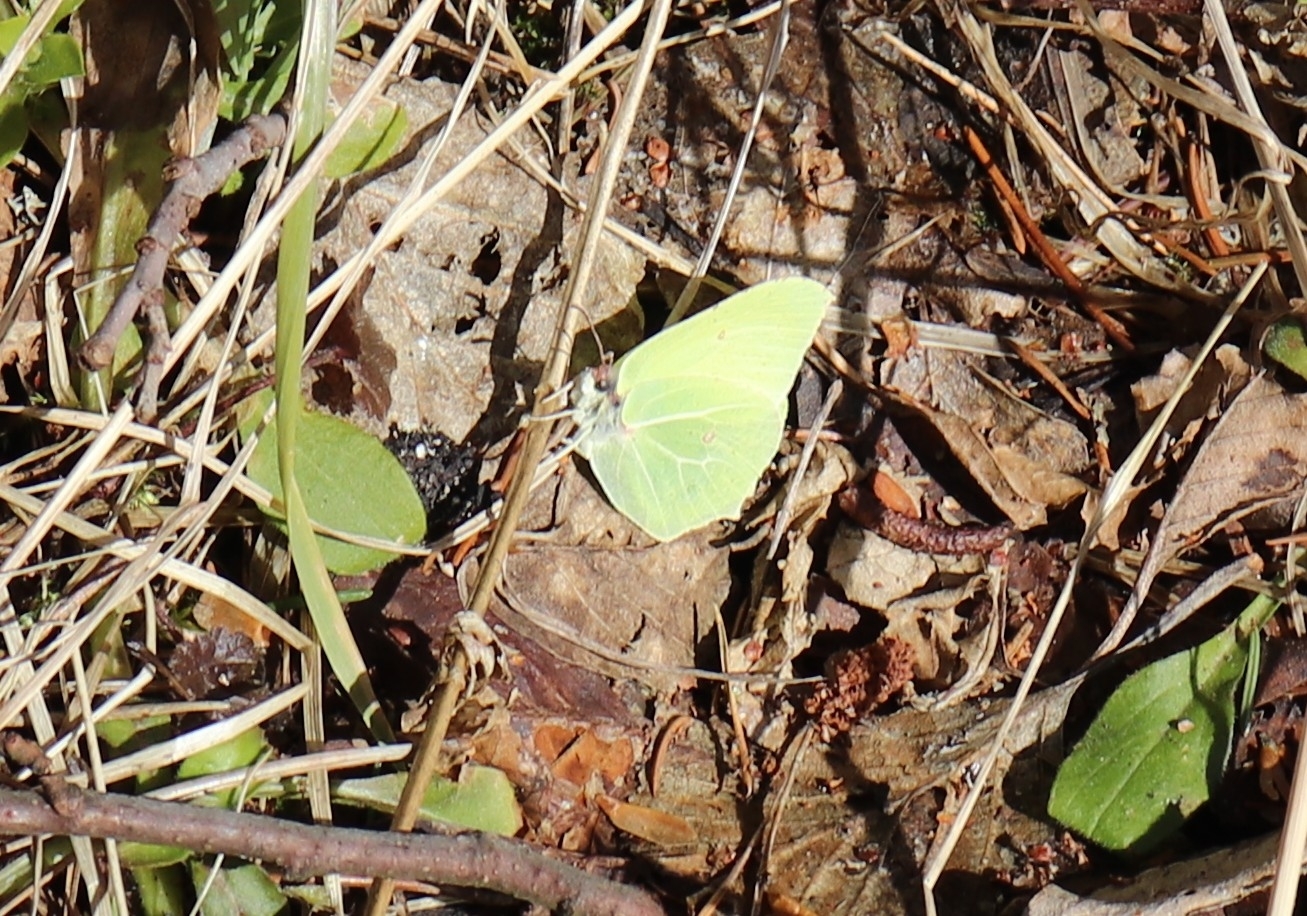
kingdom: Animalia
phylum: Arthropoda
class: Insecta
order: Lepidoptera
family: Pieridae
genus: Gonepteryx
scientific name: Gonepteryx rhamni
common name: Brimstone
